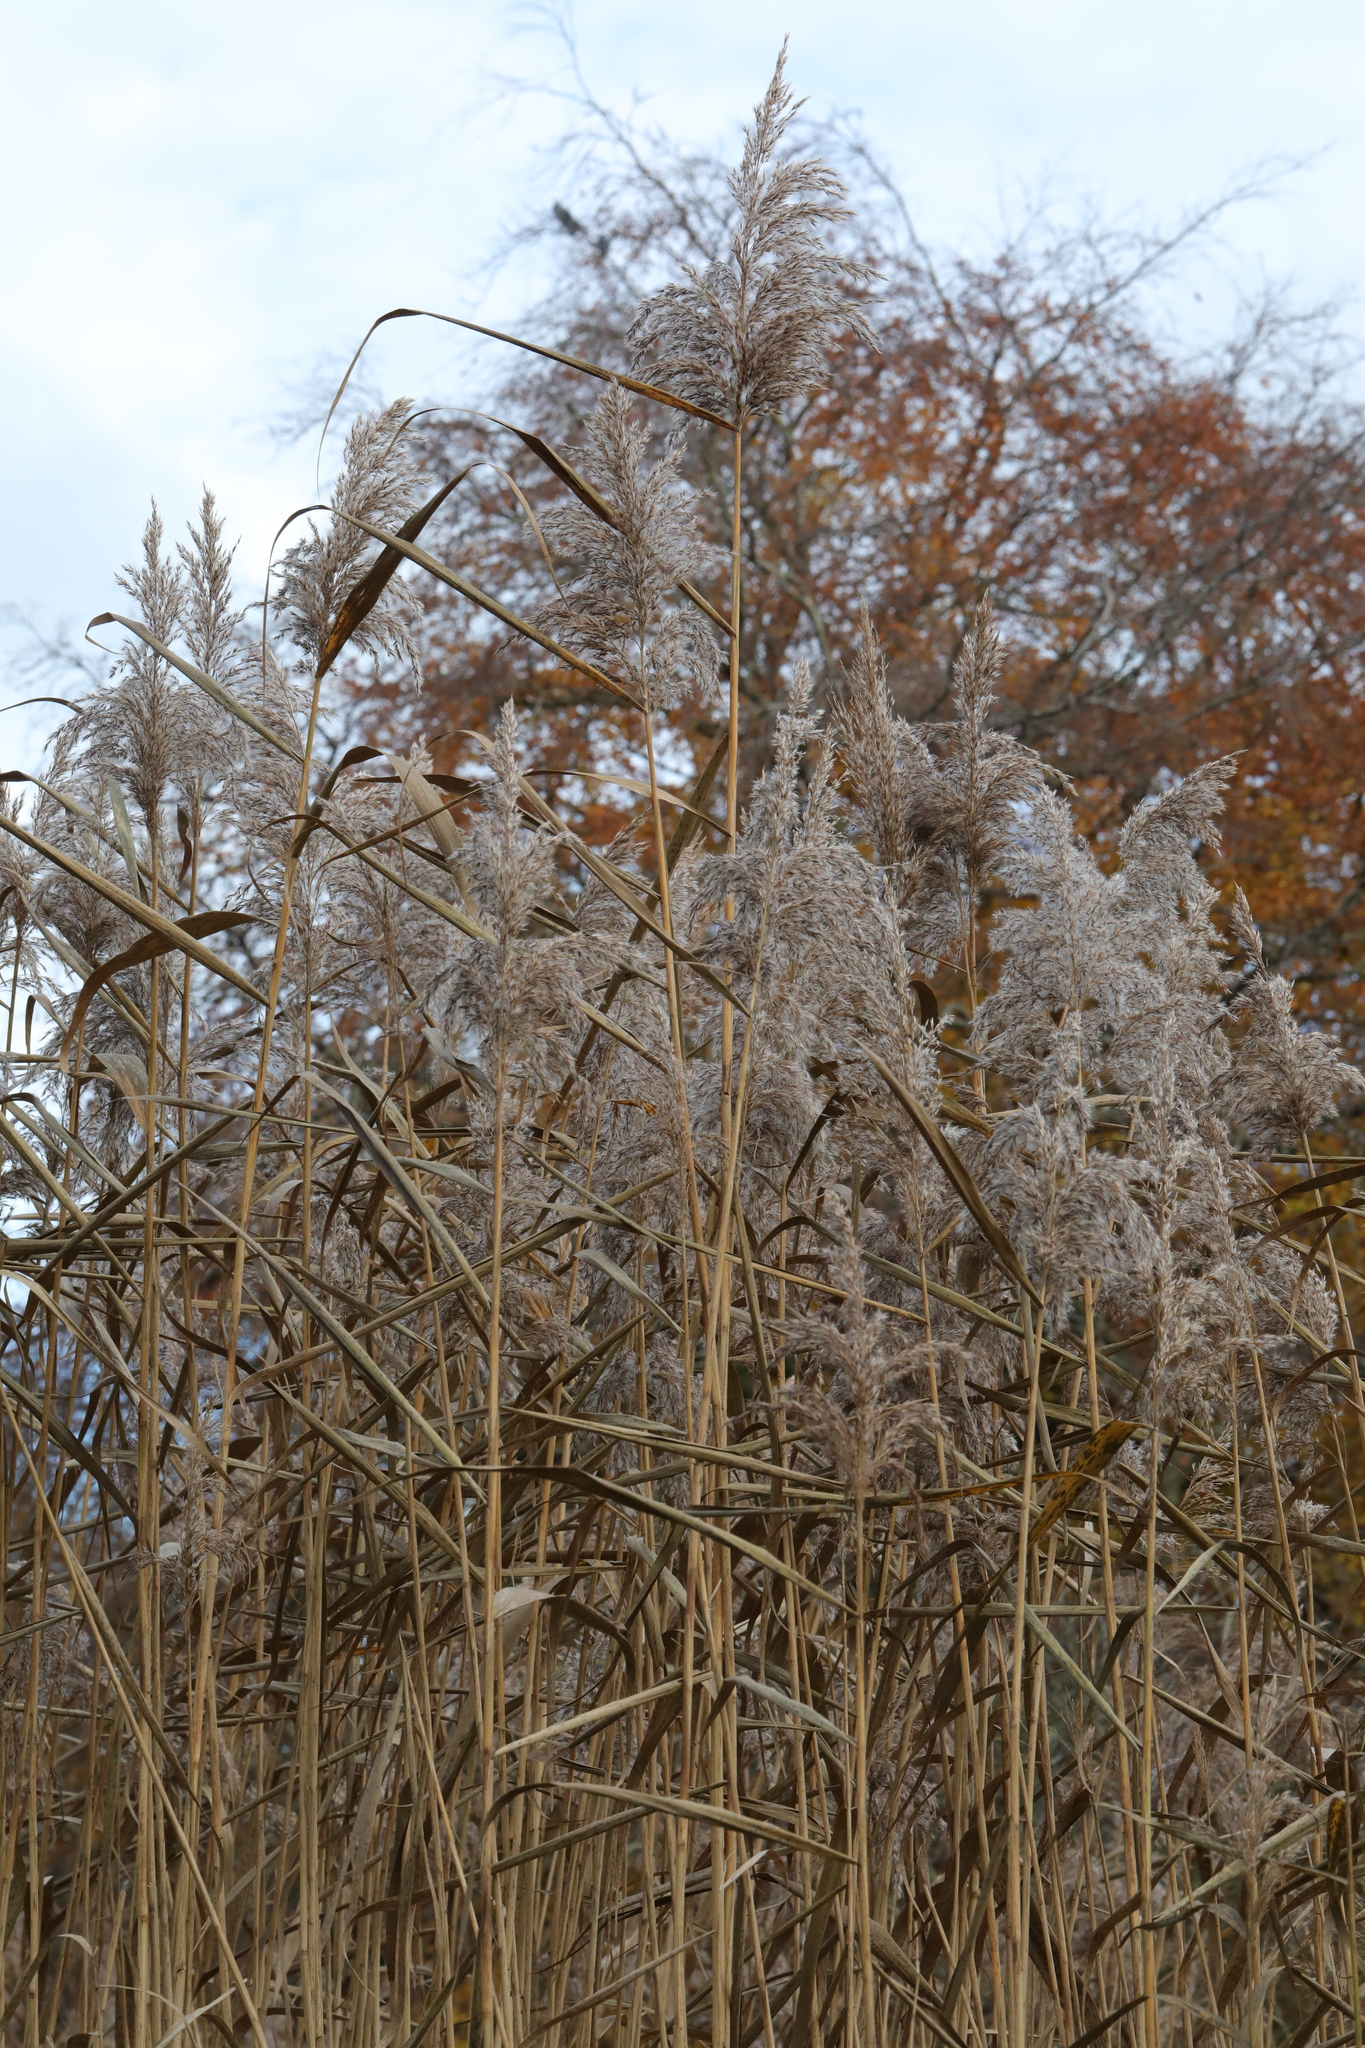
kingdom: Plantae
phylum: Tracheophyta
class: Liliopsida
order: Poales
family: Poaceae
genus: Phragmites
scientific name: Phragmites australis
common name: Common reed
